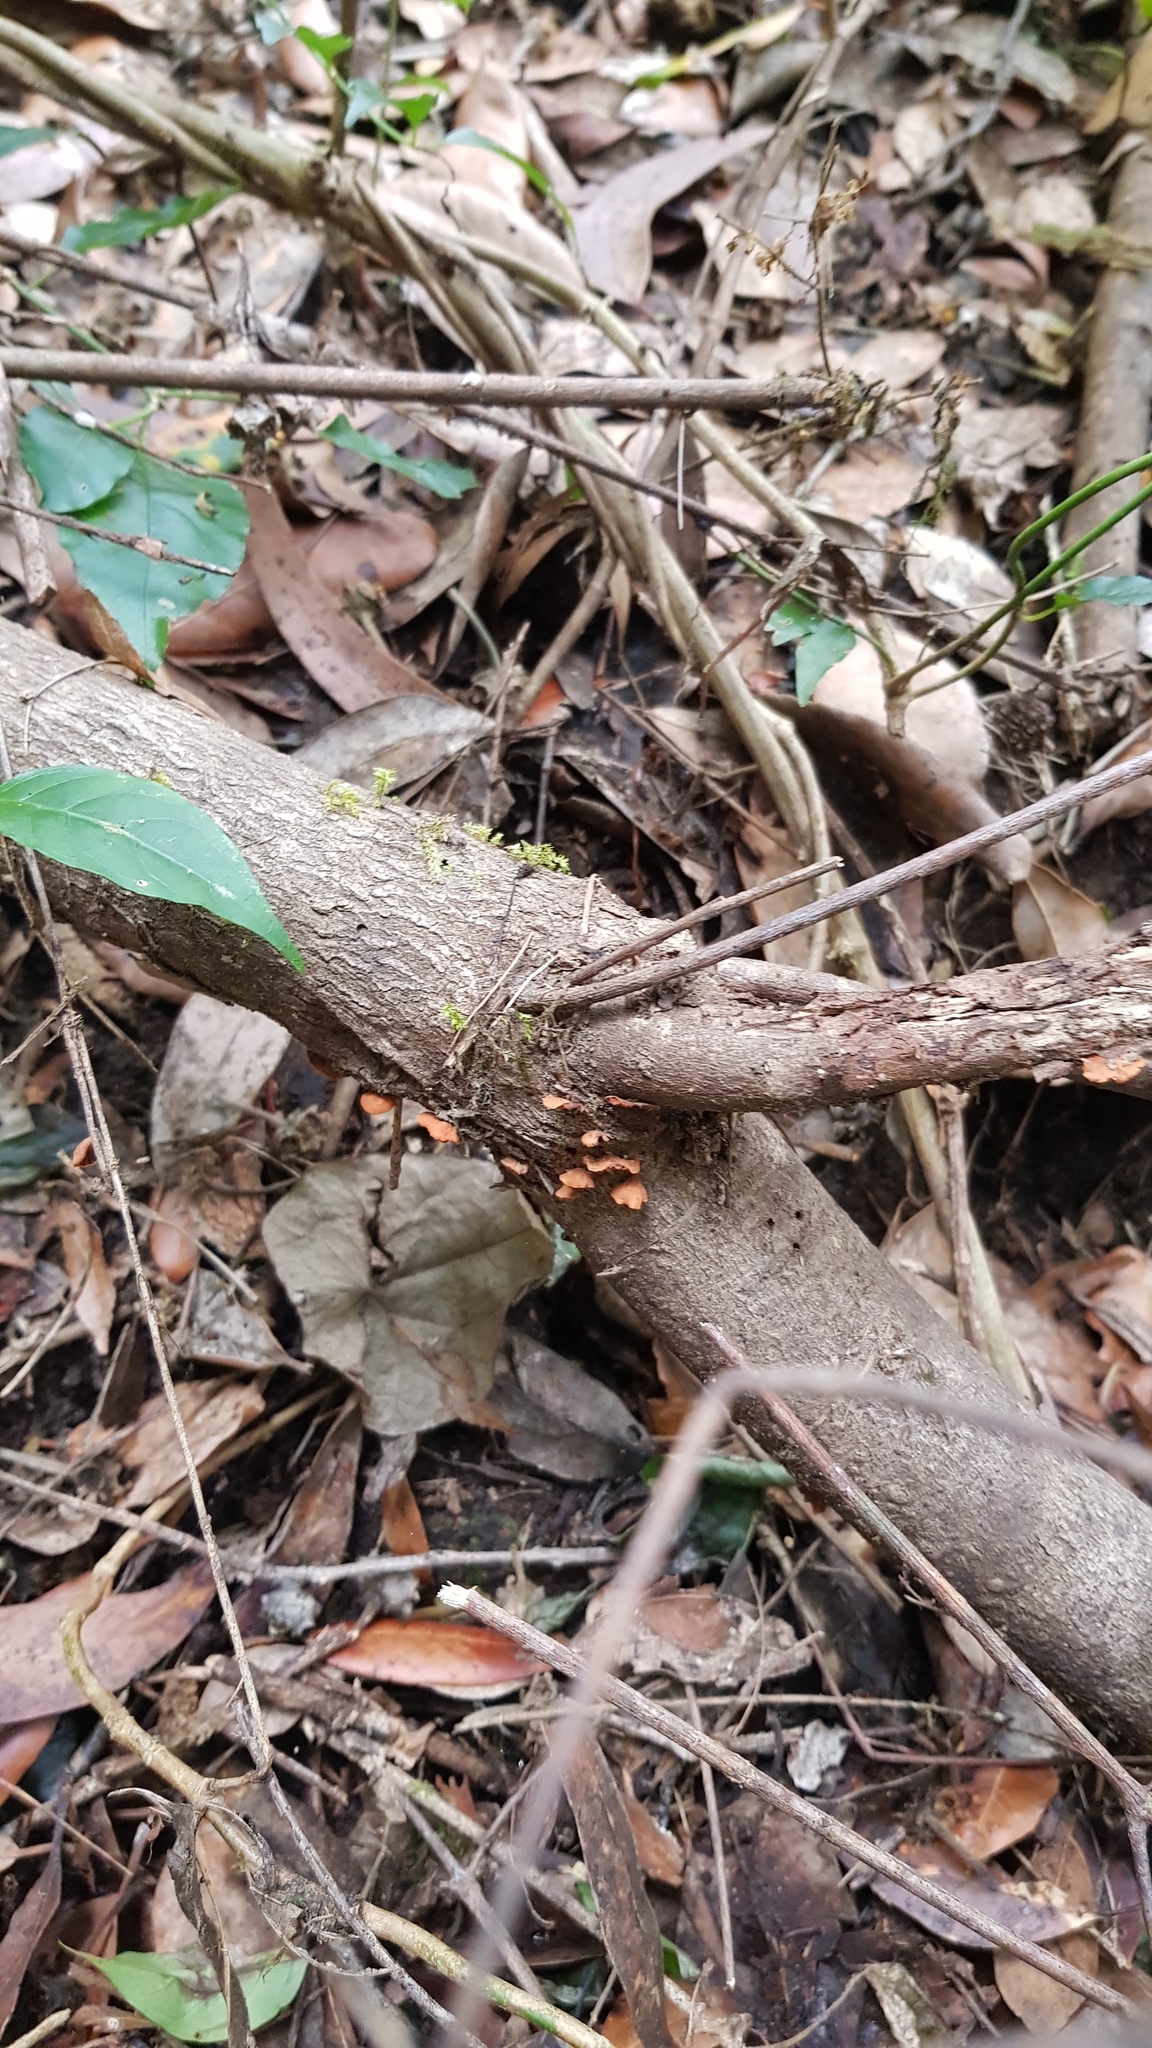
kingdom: Fungi
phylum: Basidiomycota
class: Agaricomycetes
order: Agaricales
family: Omphalotaceae
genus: Anthracophyllum
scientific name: Anthracophyllum archeri
